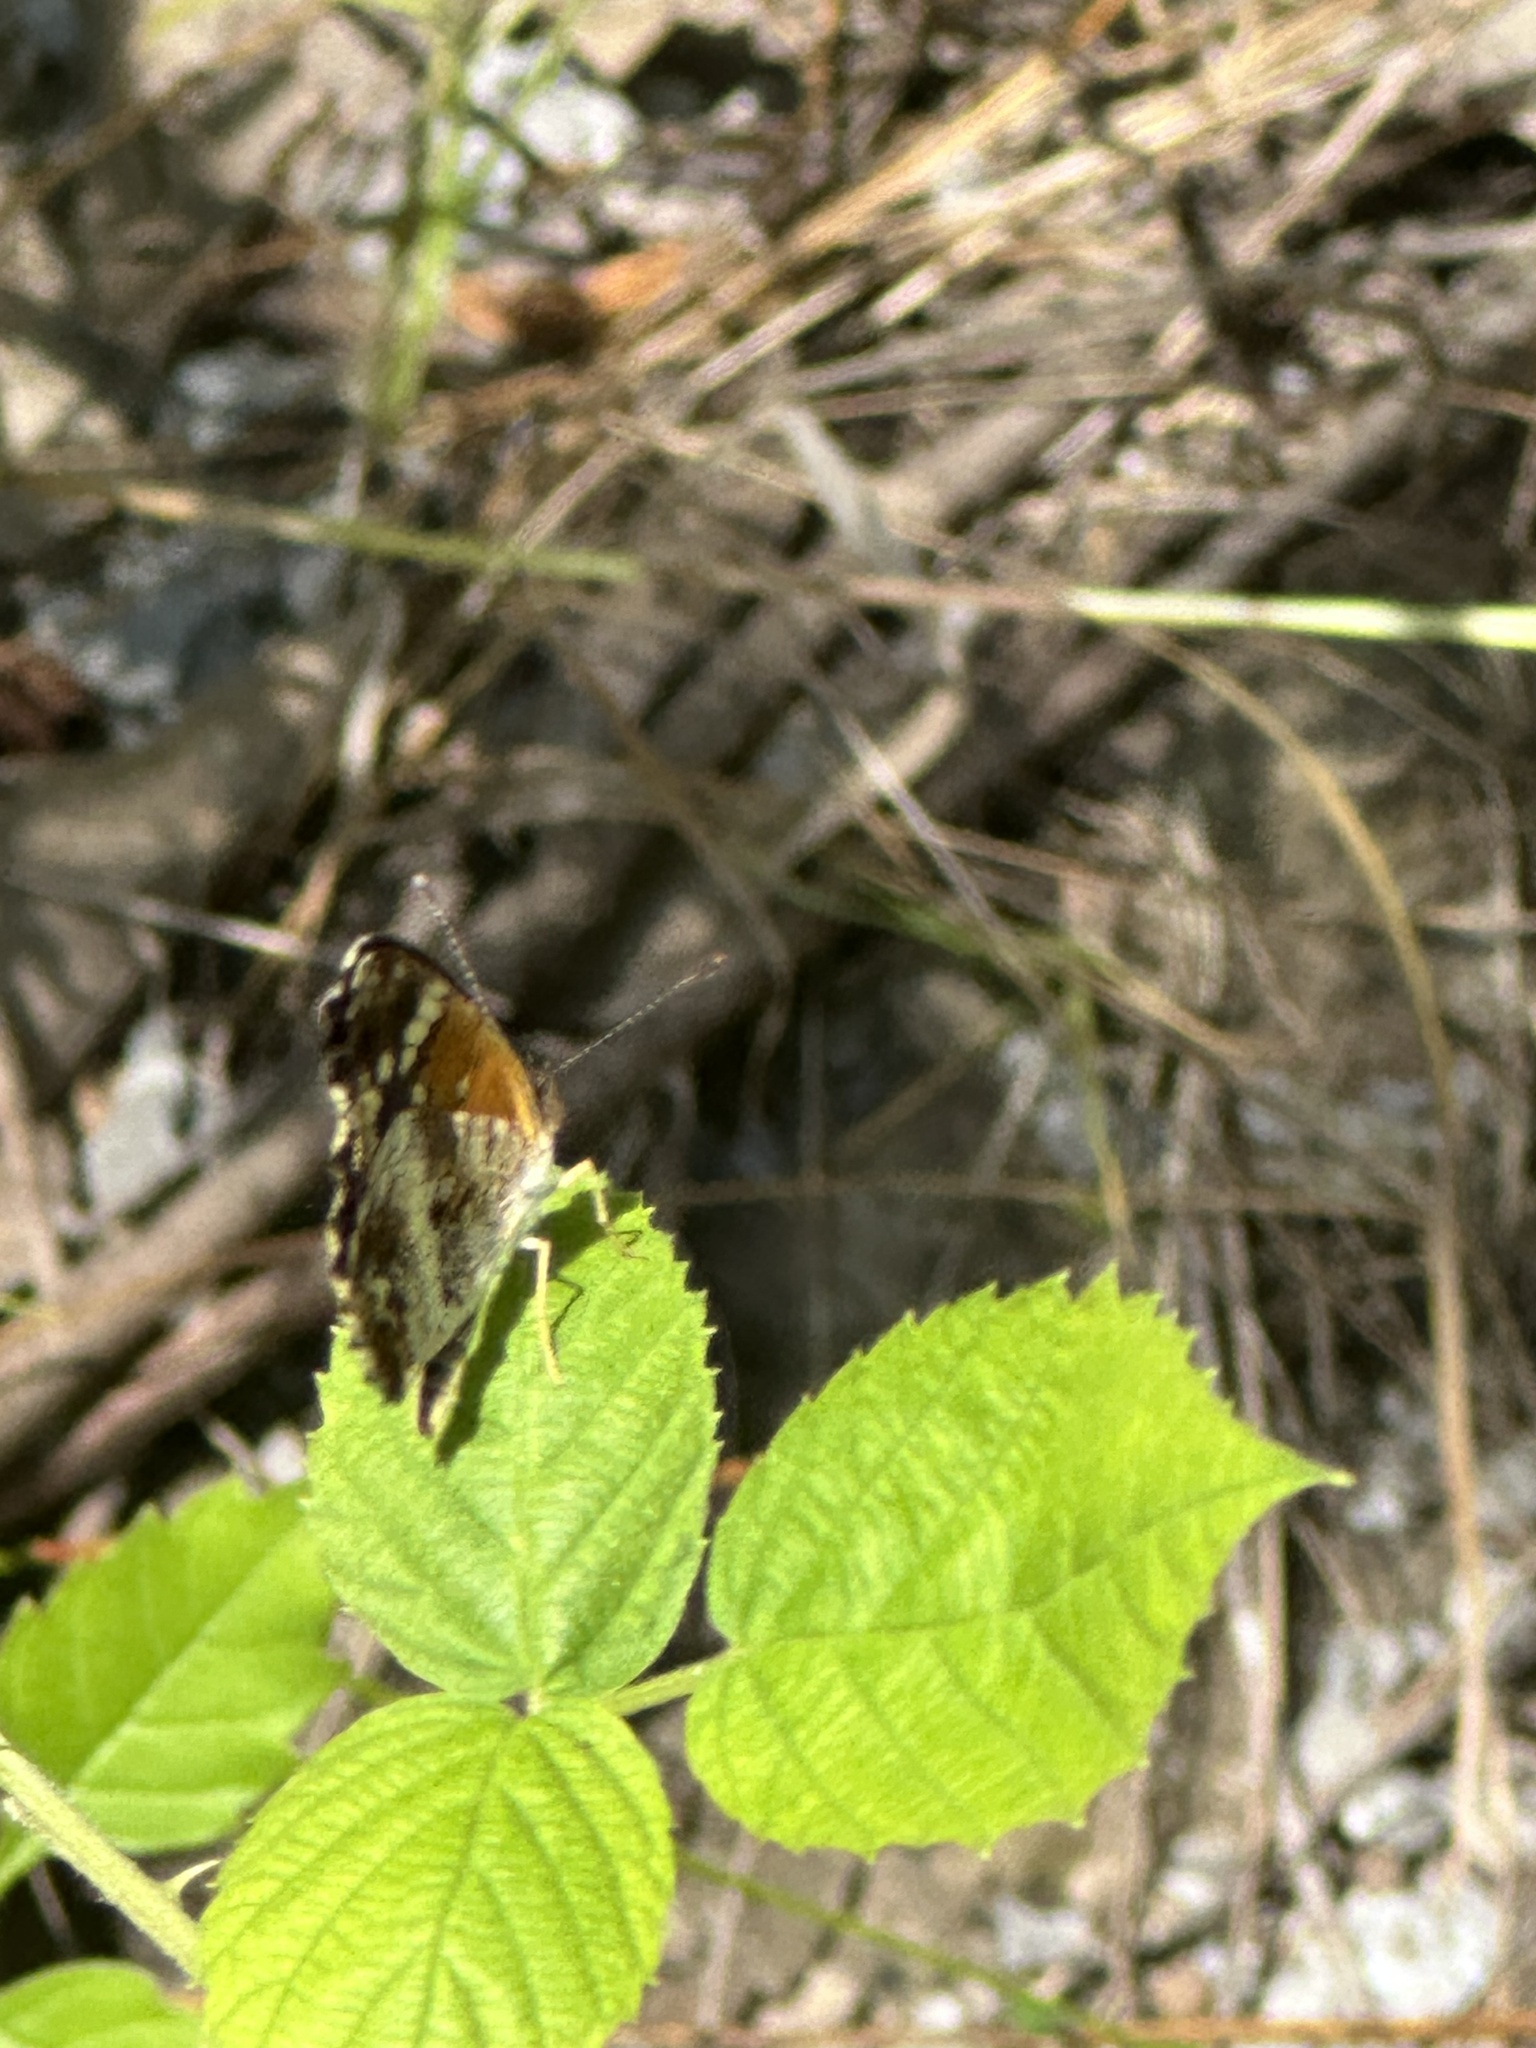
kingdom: Animalia
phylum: Arthropoda
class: Insecta
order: Lepidoptera
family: Nymphalidae
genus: Anthanassa
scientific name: Anthanassa taxana
